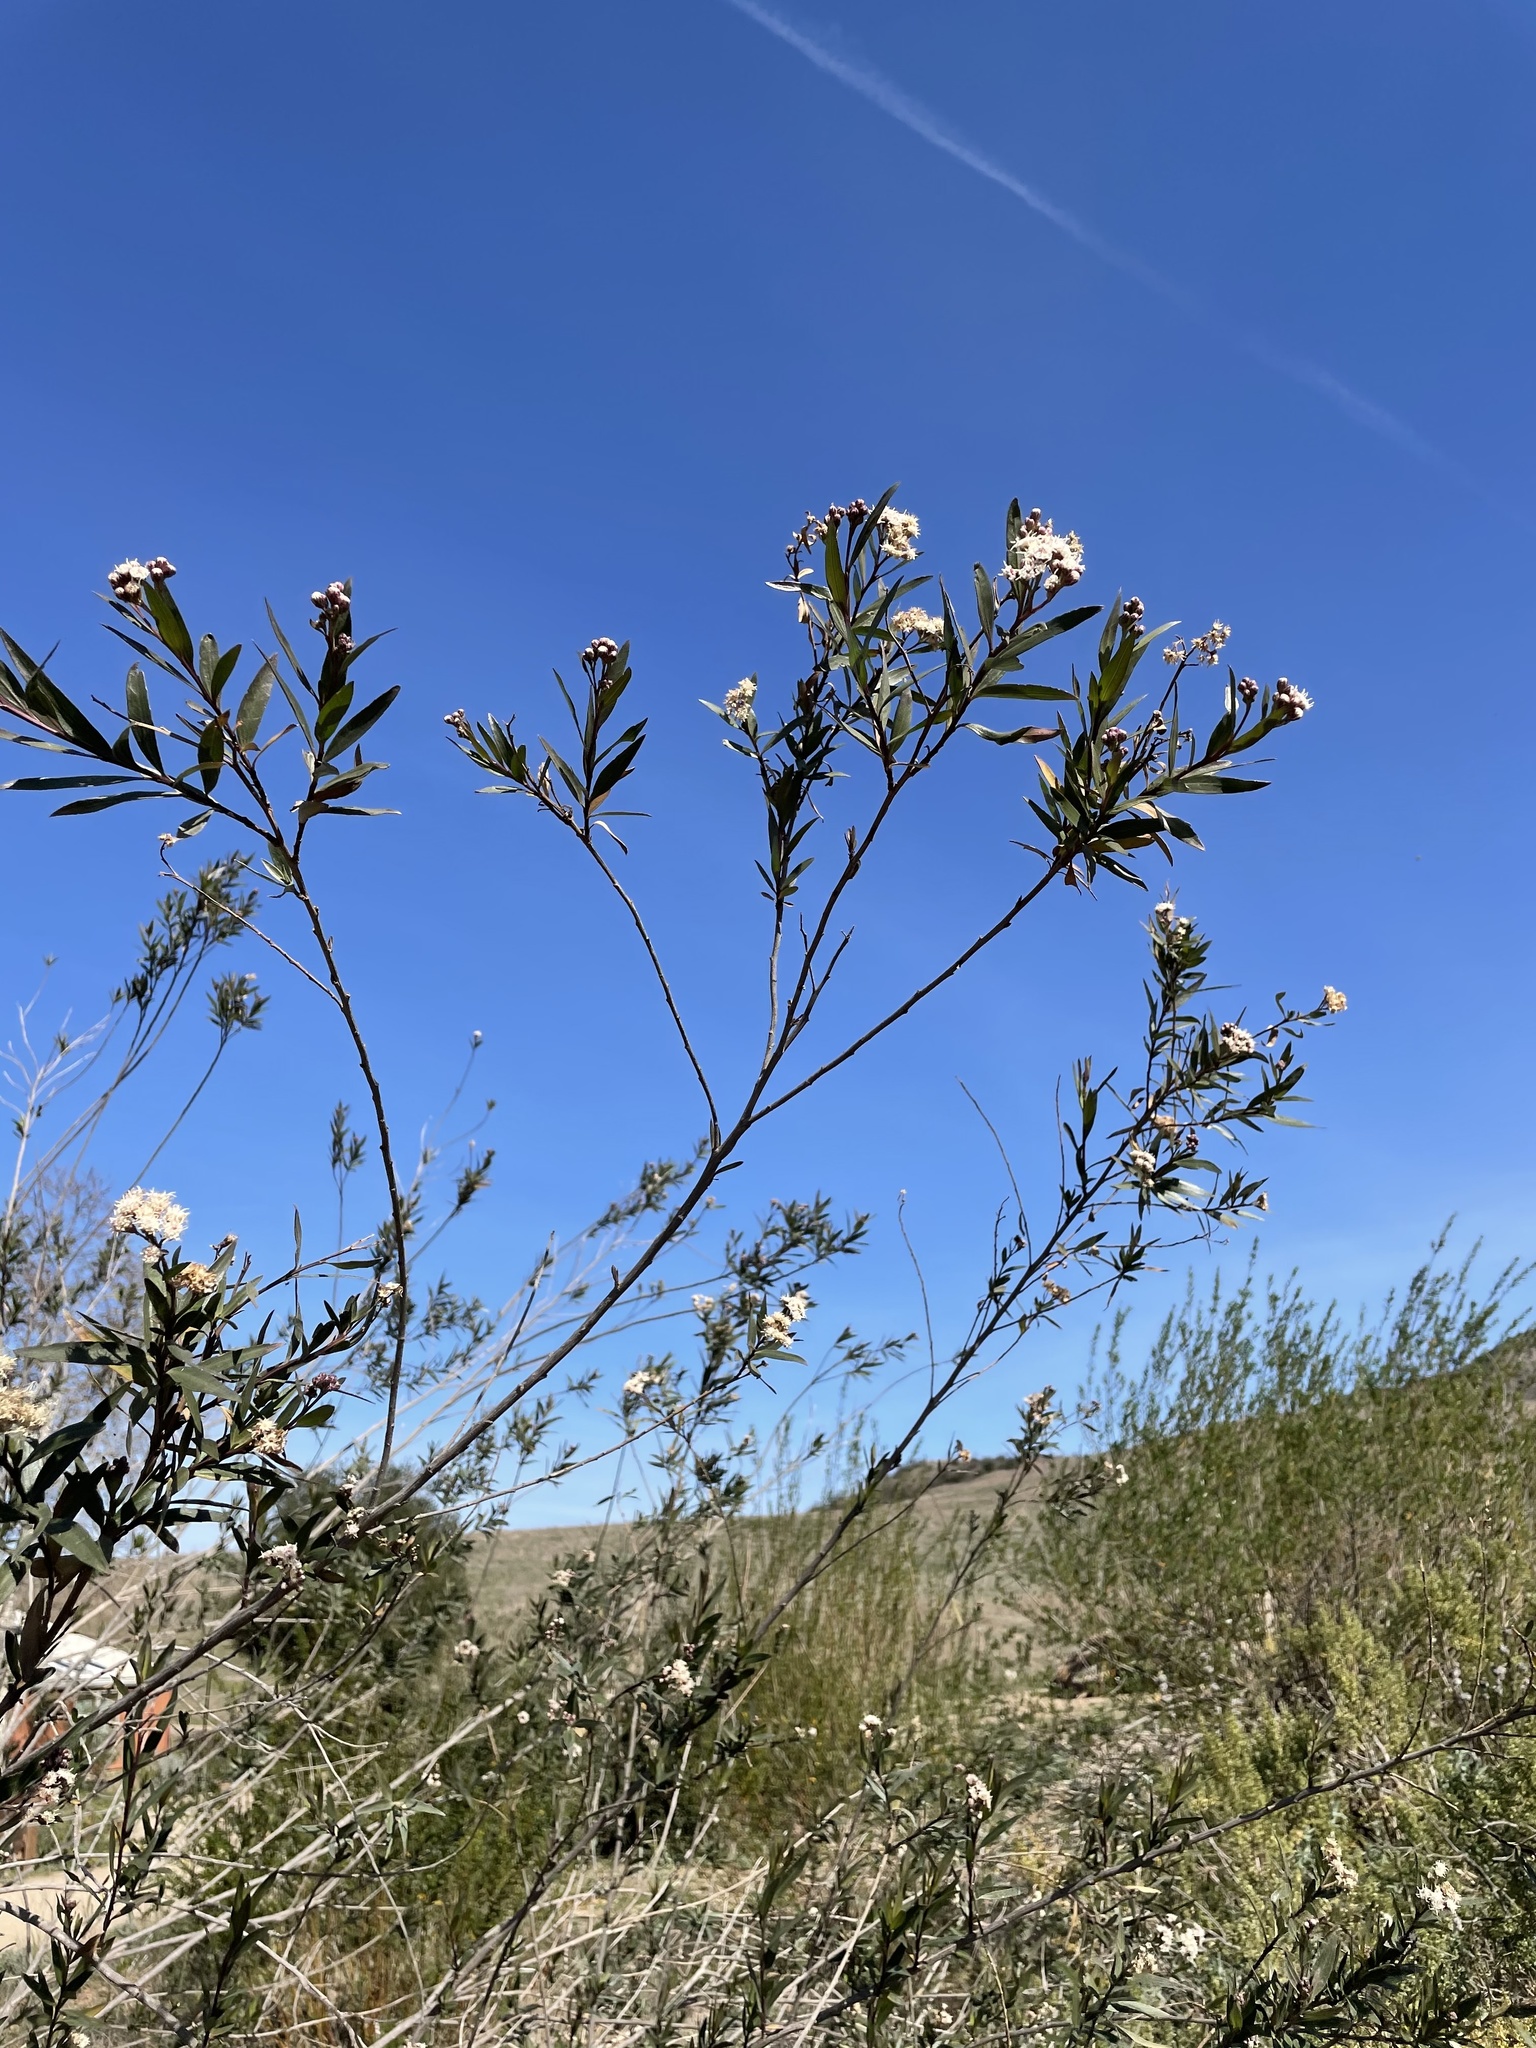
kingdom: Plantae
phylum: Tracheophyta
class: Magnoliopsida
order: Asterales
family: Asteraceae
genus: Baccharis
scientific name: Baccharis salicifolia
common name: Sticky baccharis
